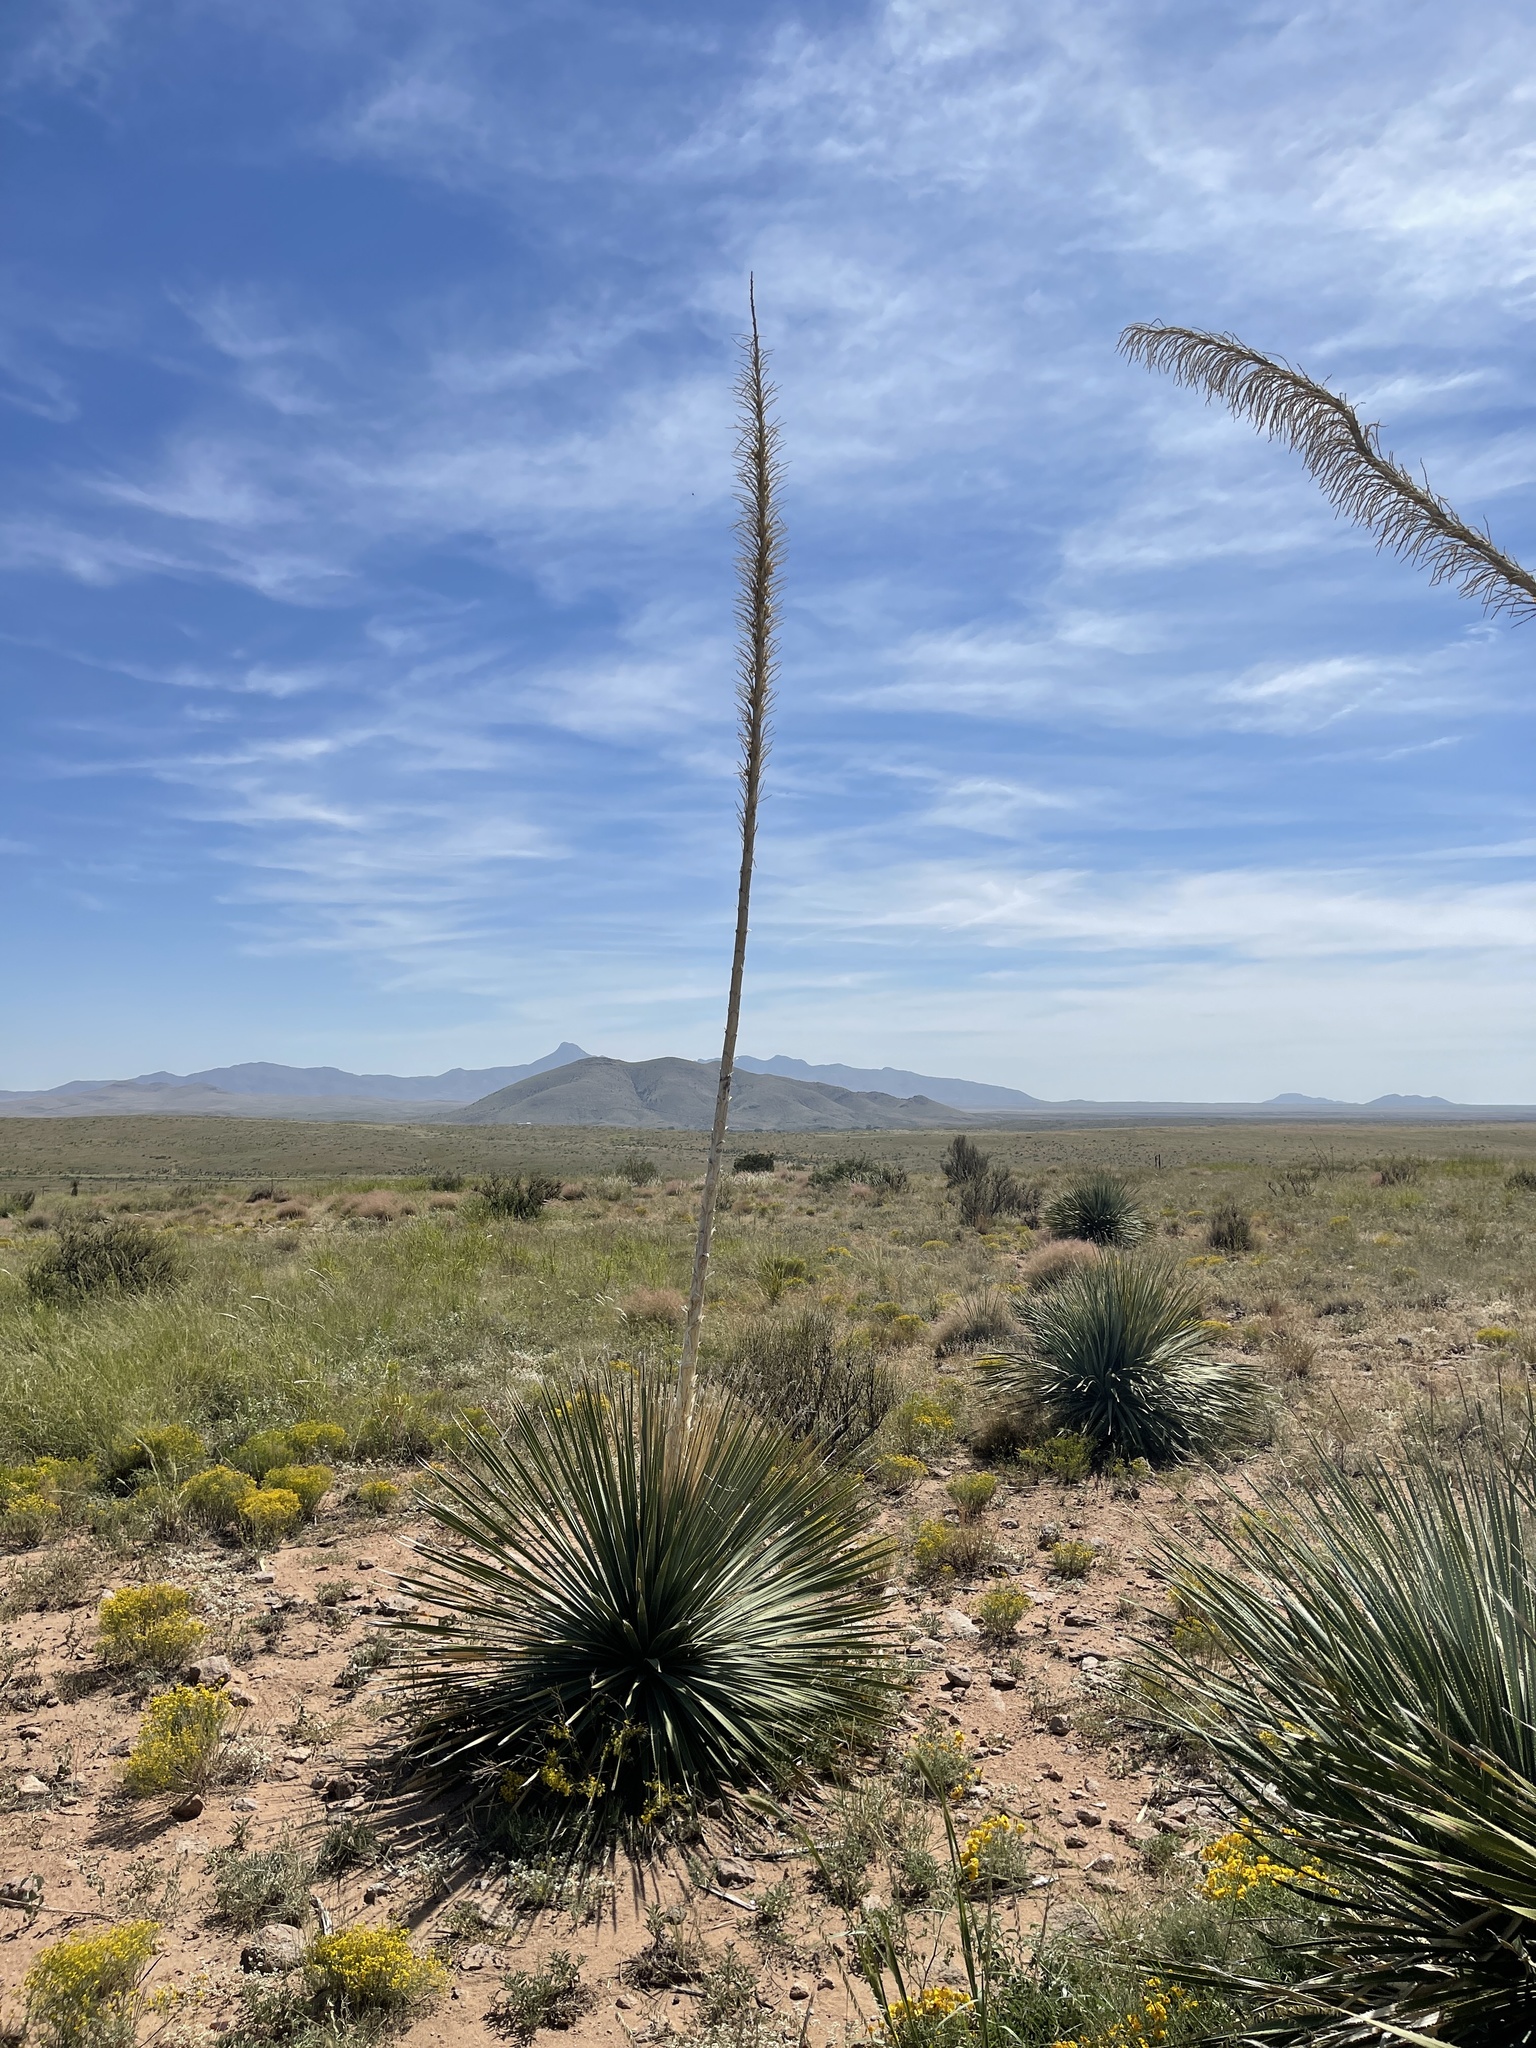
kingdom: Plantae
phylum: Tracheophyta
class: Liliopsida
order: Asparagales
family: Asparagaceae
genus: Dasylirion
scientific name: Dasylirion wheeleri
